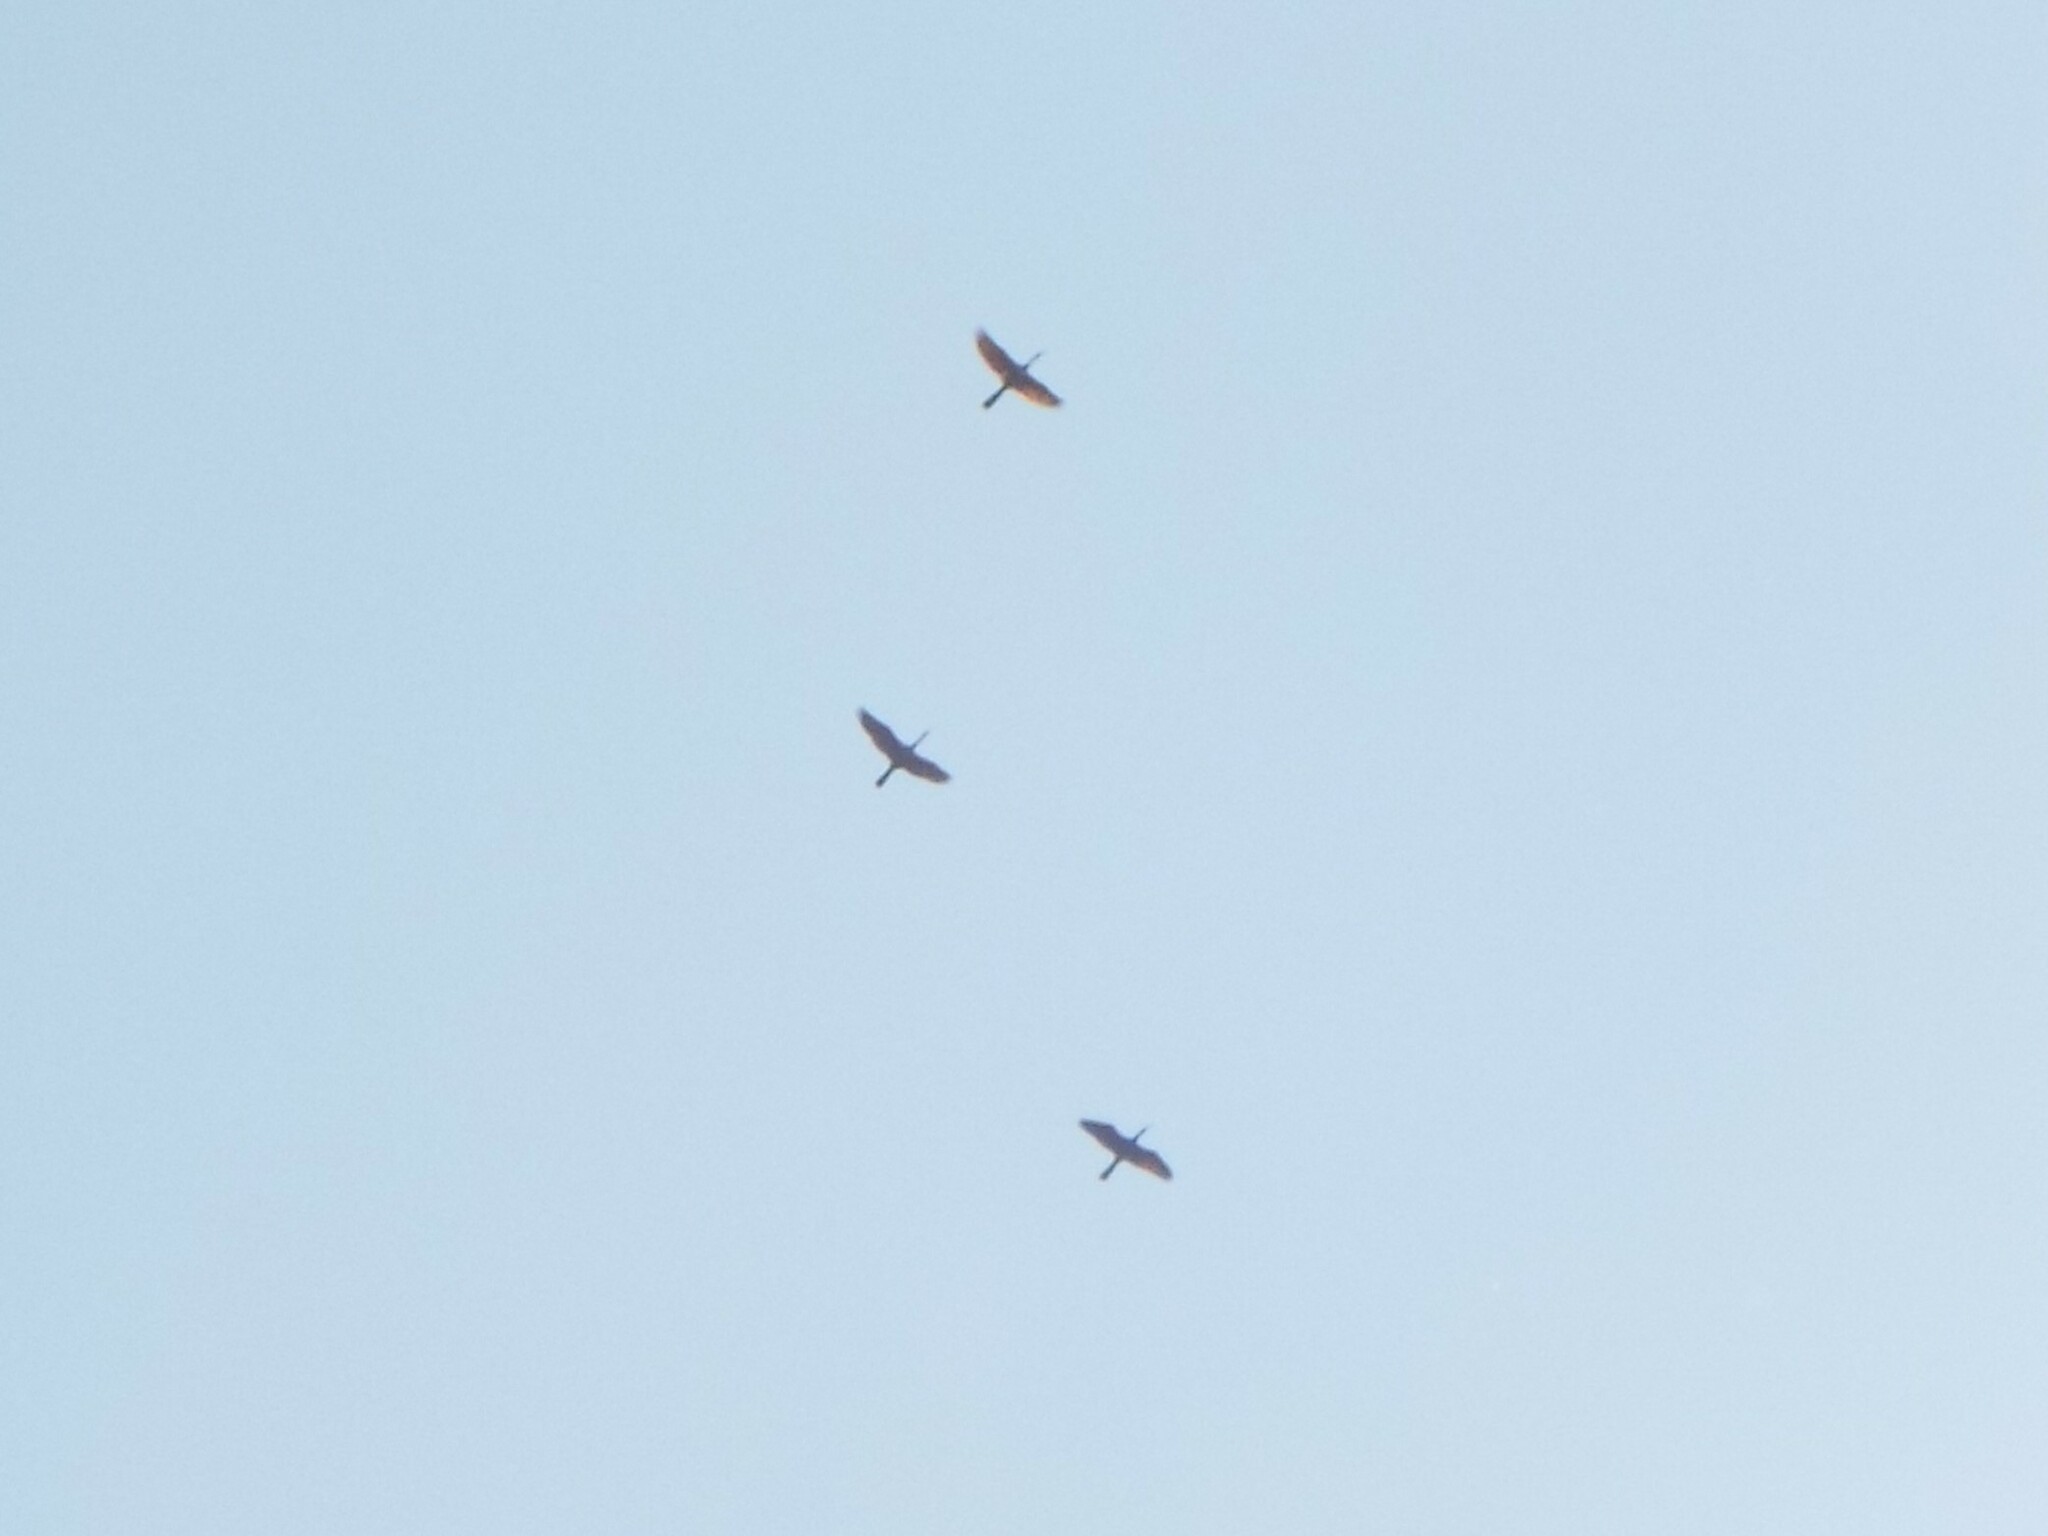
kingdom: Animalia
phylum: Chordata
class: Aves
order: Suliformes
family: Anhingidae
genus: Anhinga
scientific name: Anhinga anhinga
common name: Anhinga
